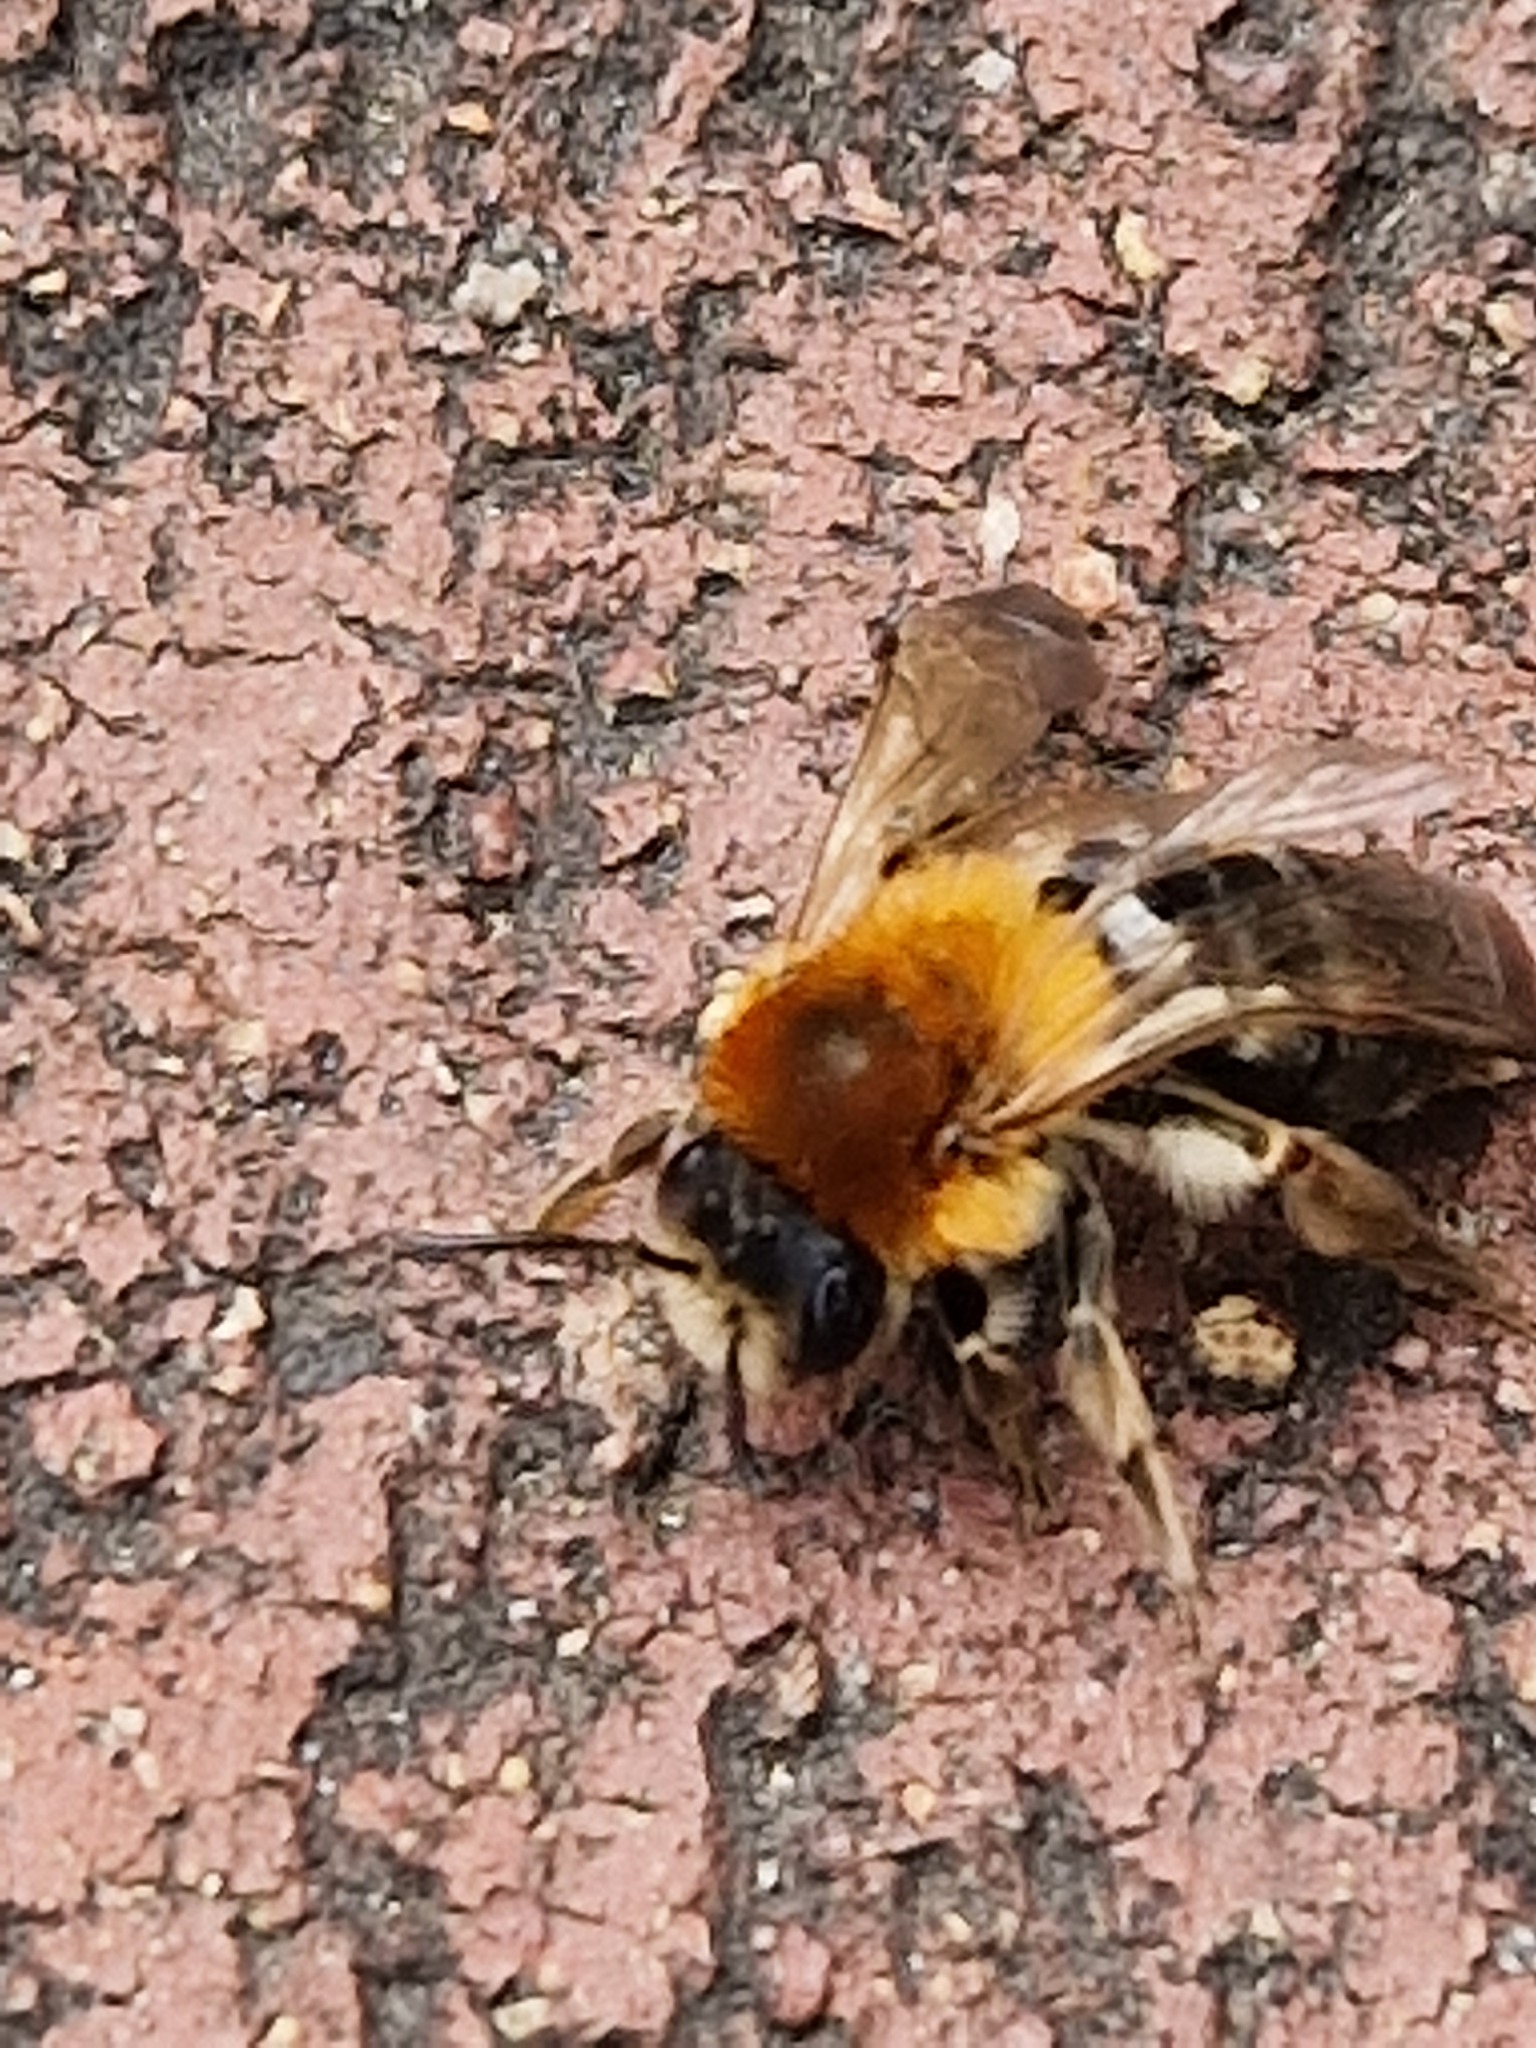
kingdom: Animalia
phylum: Arthropoda
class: Insecta
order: Hymenoptera
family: Andrenidae
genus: Andrena
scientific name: Andrena nitida
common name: Grey-patched mining bee
